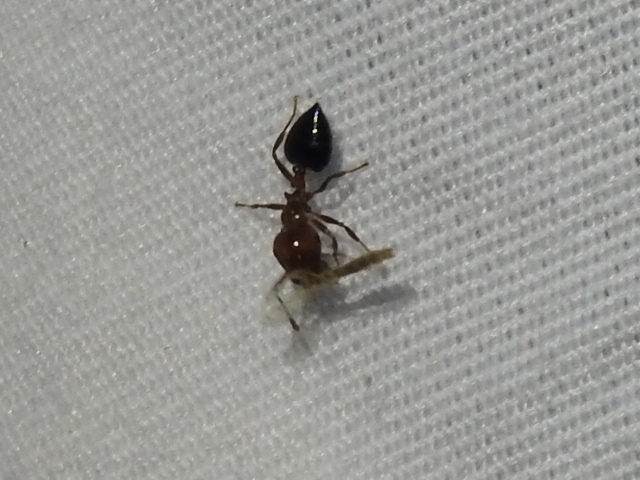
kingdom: Animalia
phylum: Arthropoda
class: Insecta
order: Hymenoptera
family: Formicidae
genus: Crematogaster
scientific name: Crematogaster laeviuscula
